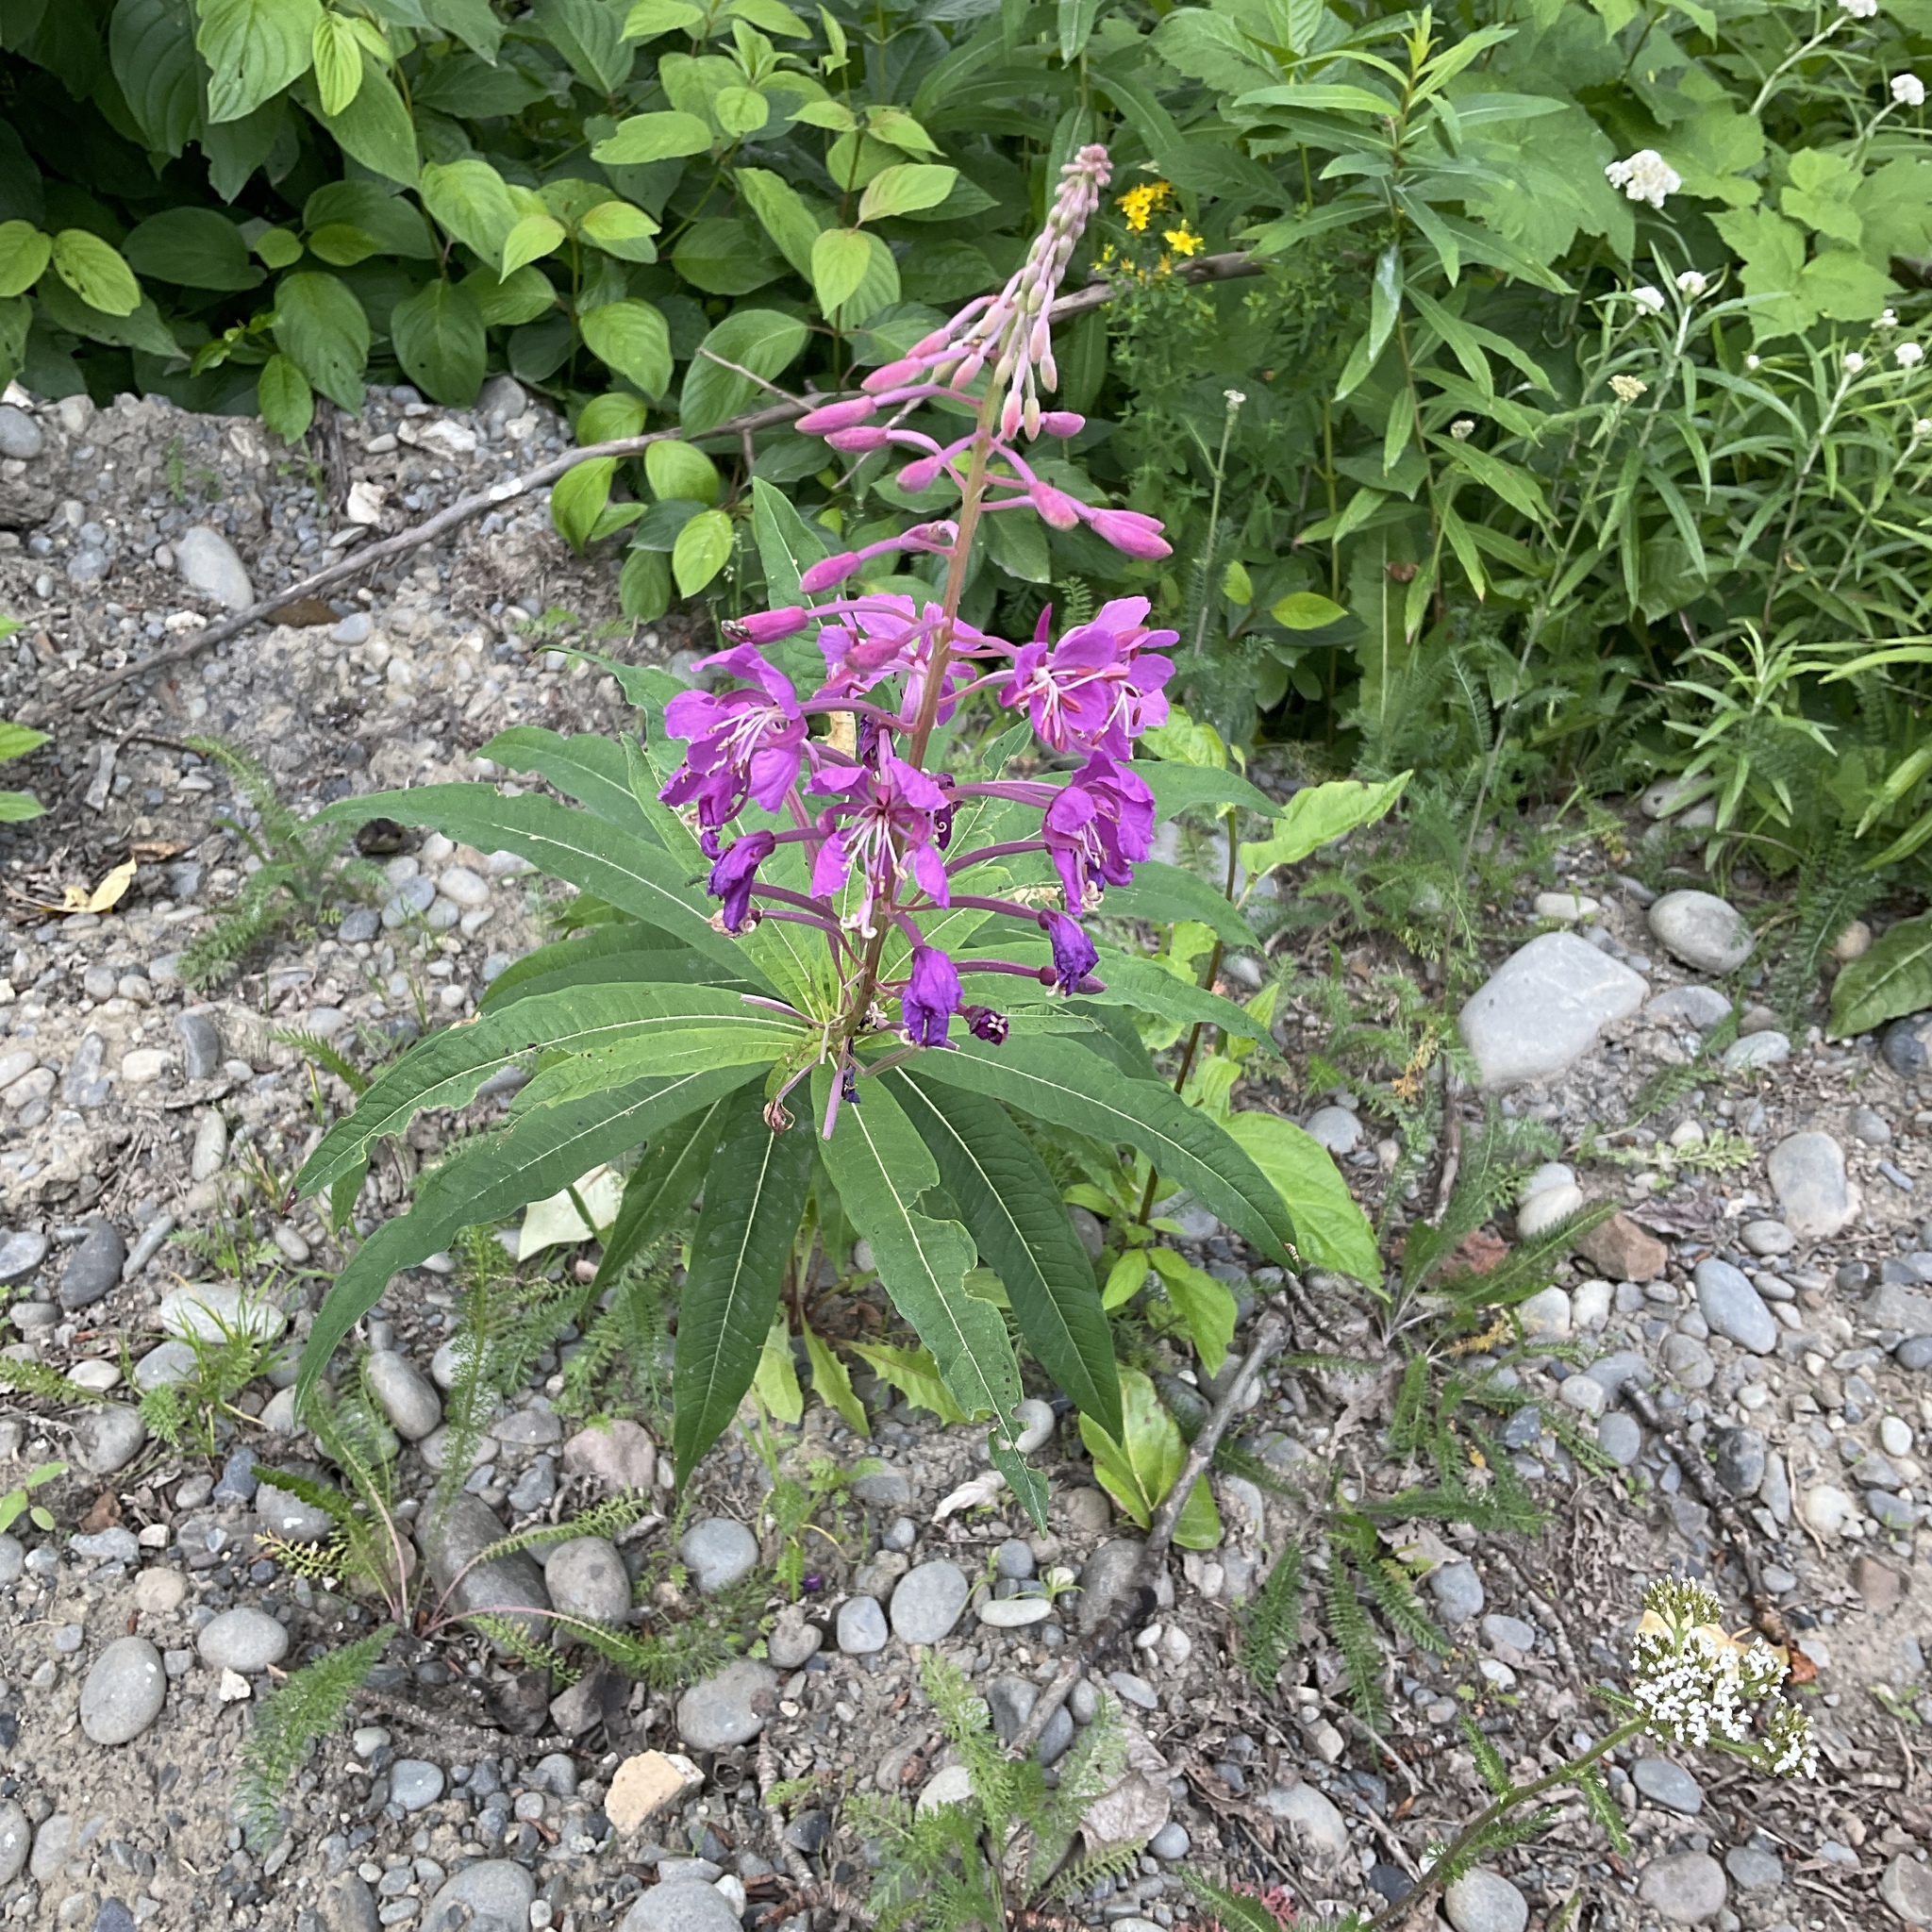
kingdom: Plantae
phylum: Tracheophyta
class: Magnoliopsida
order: Myrtales
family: Onagraceae
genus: Chamaenerion
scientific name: Chamaenerion angustifolium
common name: Fireweed
